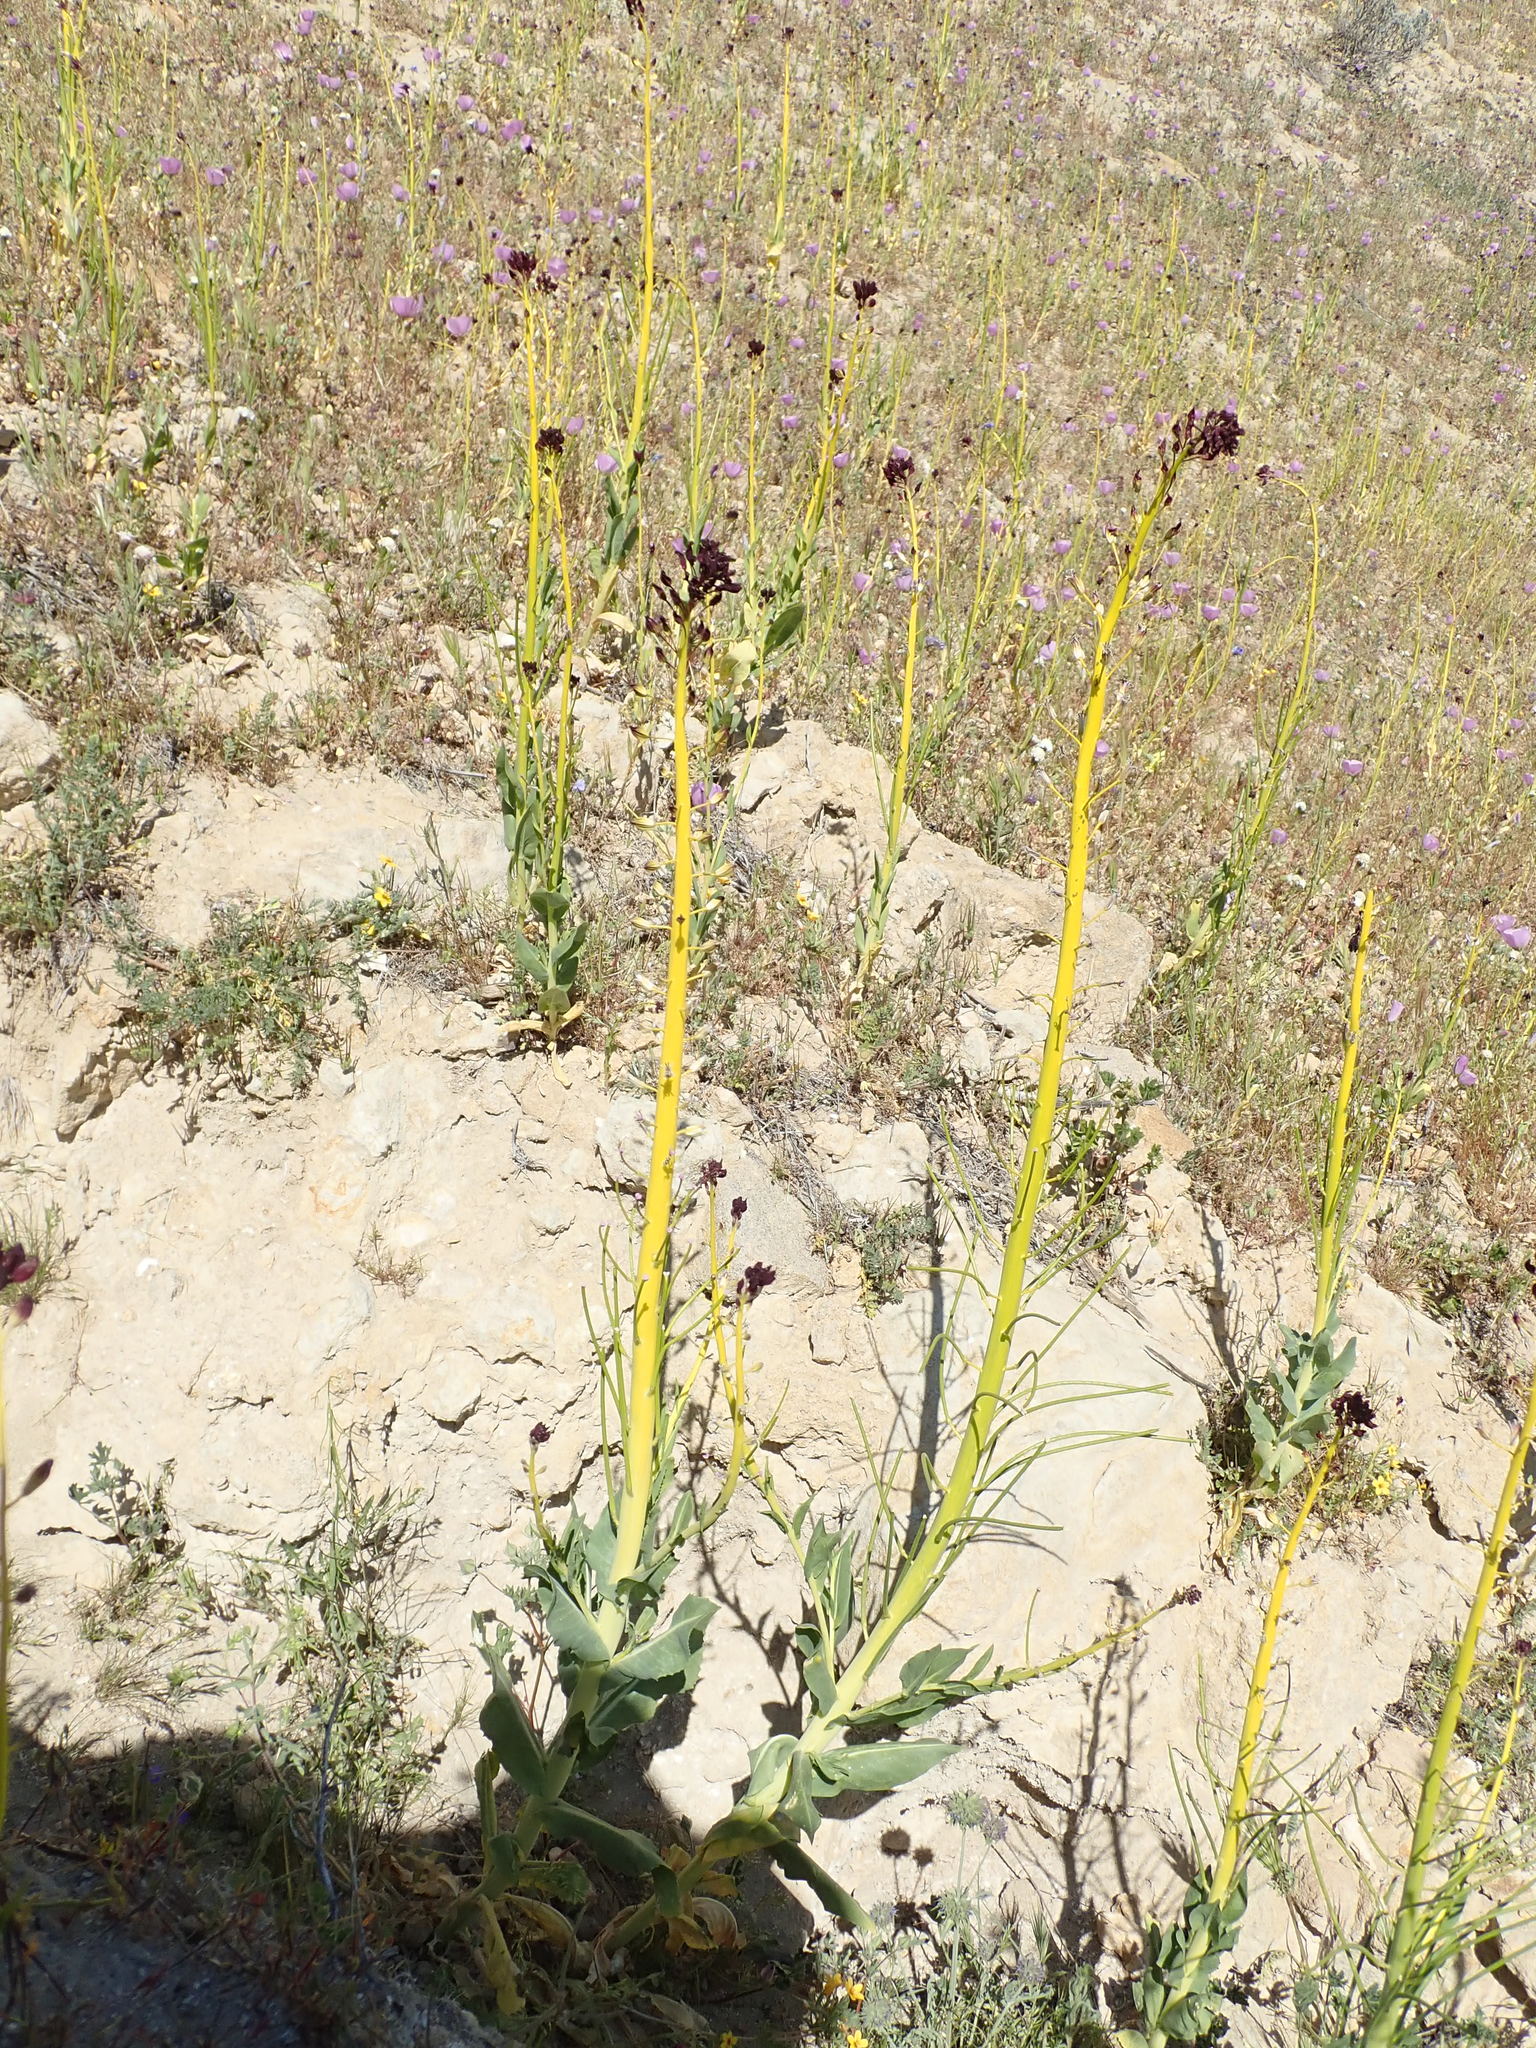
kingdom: Plantae
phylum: Tracheophyta
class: Magnoliopsida
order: Brassicales
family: Brassicaceae
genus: Streptanthus
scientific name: Streptanthus inflatus
